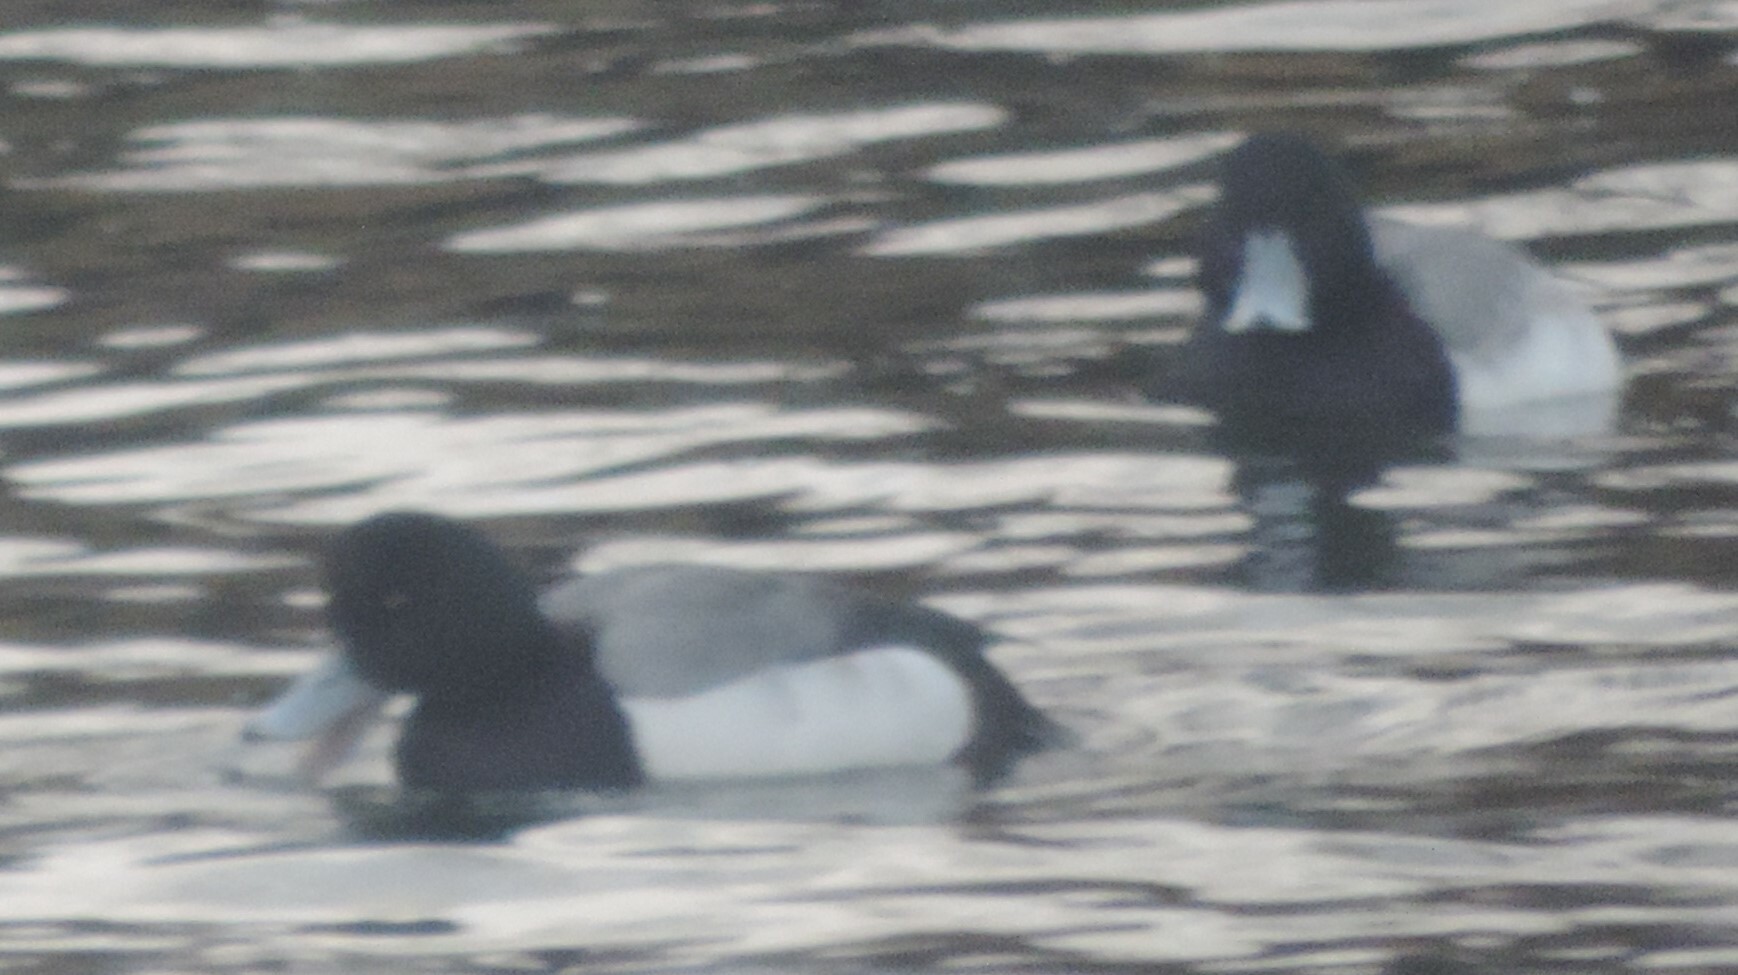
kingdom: Animalia
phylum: Chordata
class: Aves
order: Anseriformes
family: Anatidae
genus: Aythya
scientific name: Aythya marila
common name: Greater scaup
